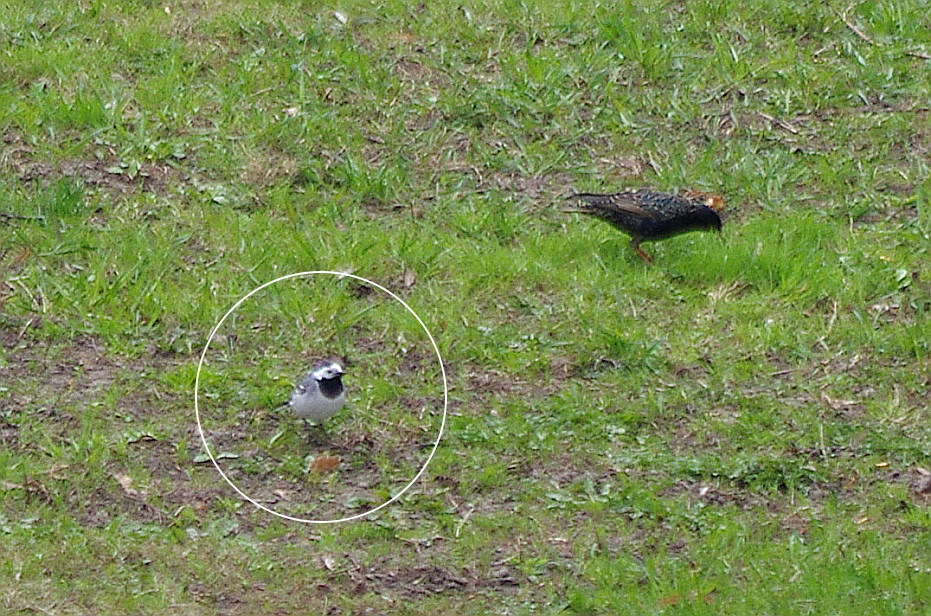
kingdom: Animalia
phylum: Chordata
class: Aves
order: Passeriformes
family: Motacillidae
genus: Motacilla
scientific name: Motacilla alba
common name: White wagtail
